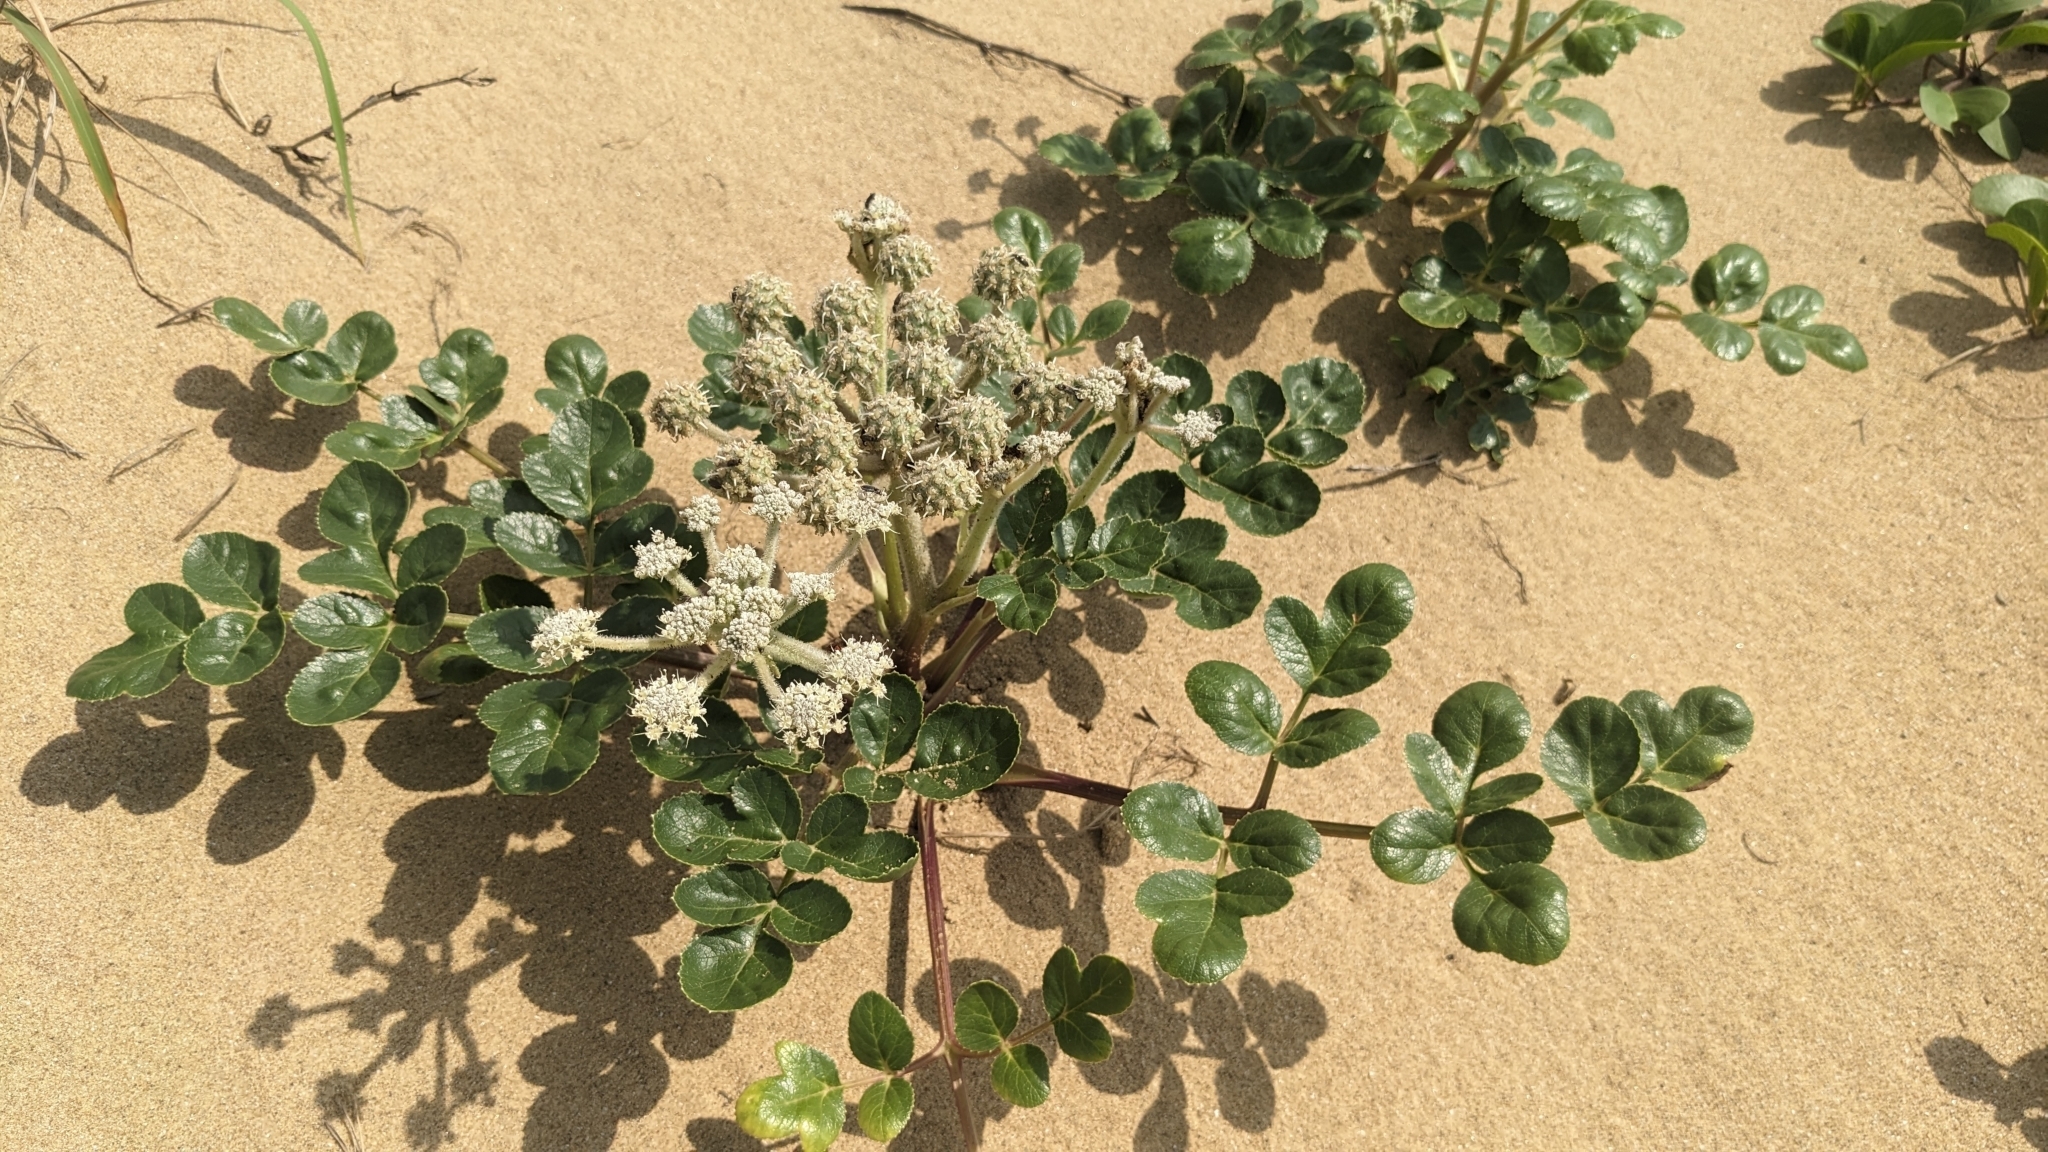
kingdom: Plantae
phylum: Tracheophyta
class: Magnoliopsida
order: Apiales
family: Apiaceae
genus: Glehnia
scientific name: Glehnia littoralis
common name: Beach silvertop
